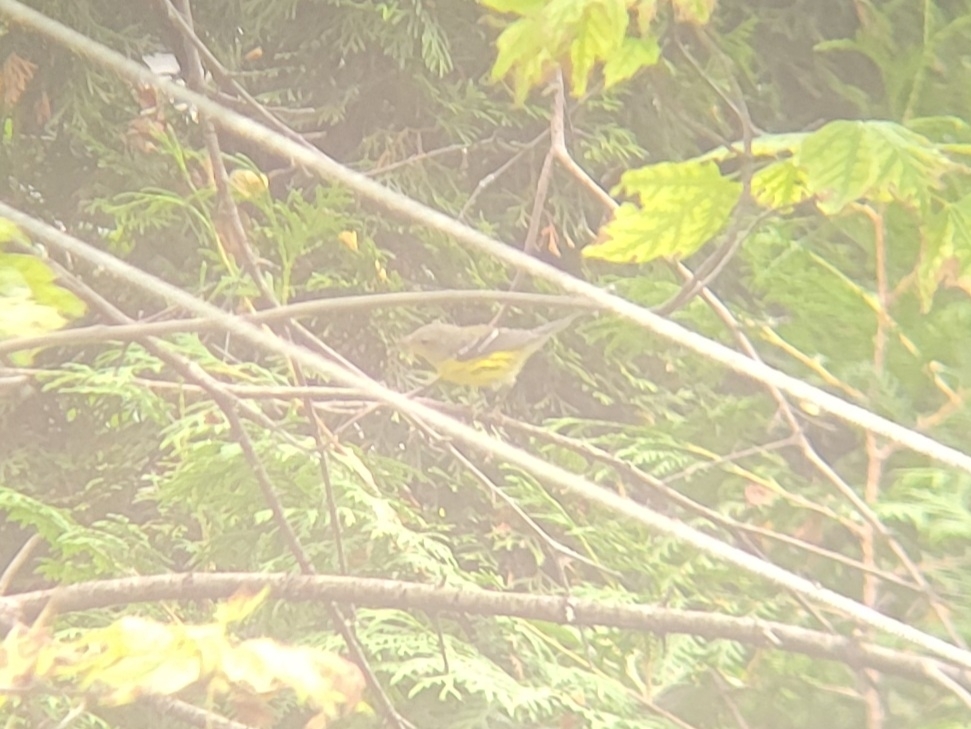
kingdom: Animalia
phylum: Chordata
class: Aves
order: Passeriformes
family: Parulidae
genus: Setophaga
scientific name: Setophaga magnolia
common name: Magnolia warbler
